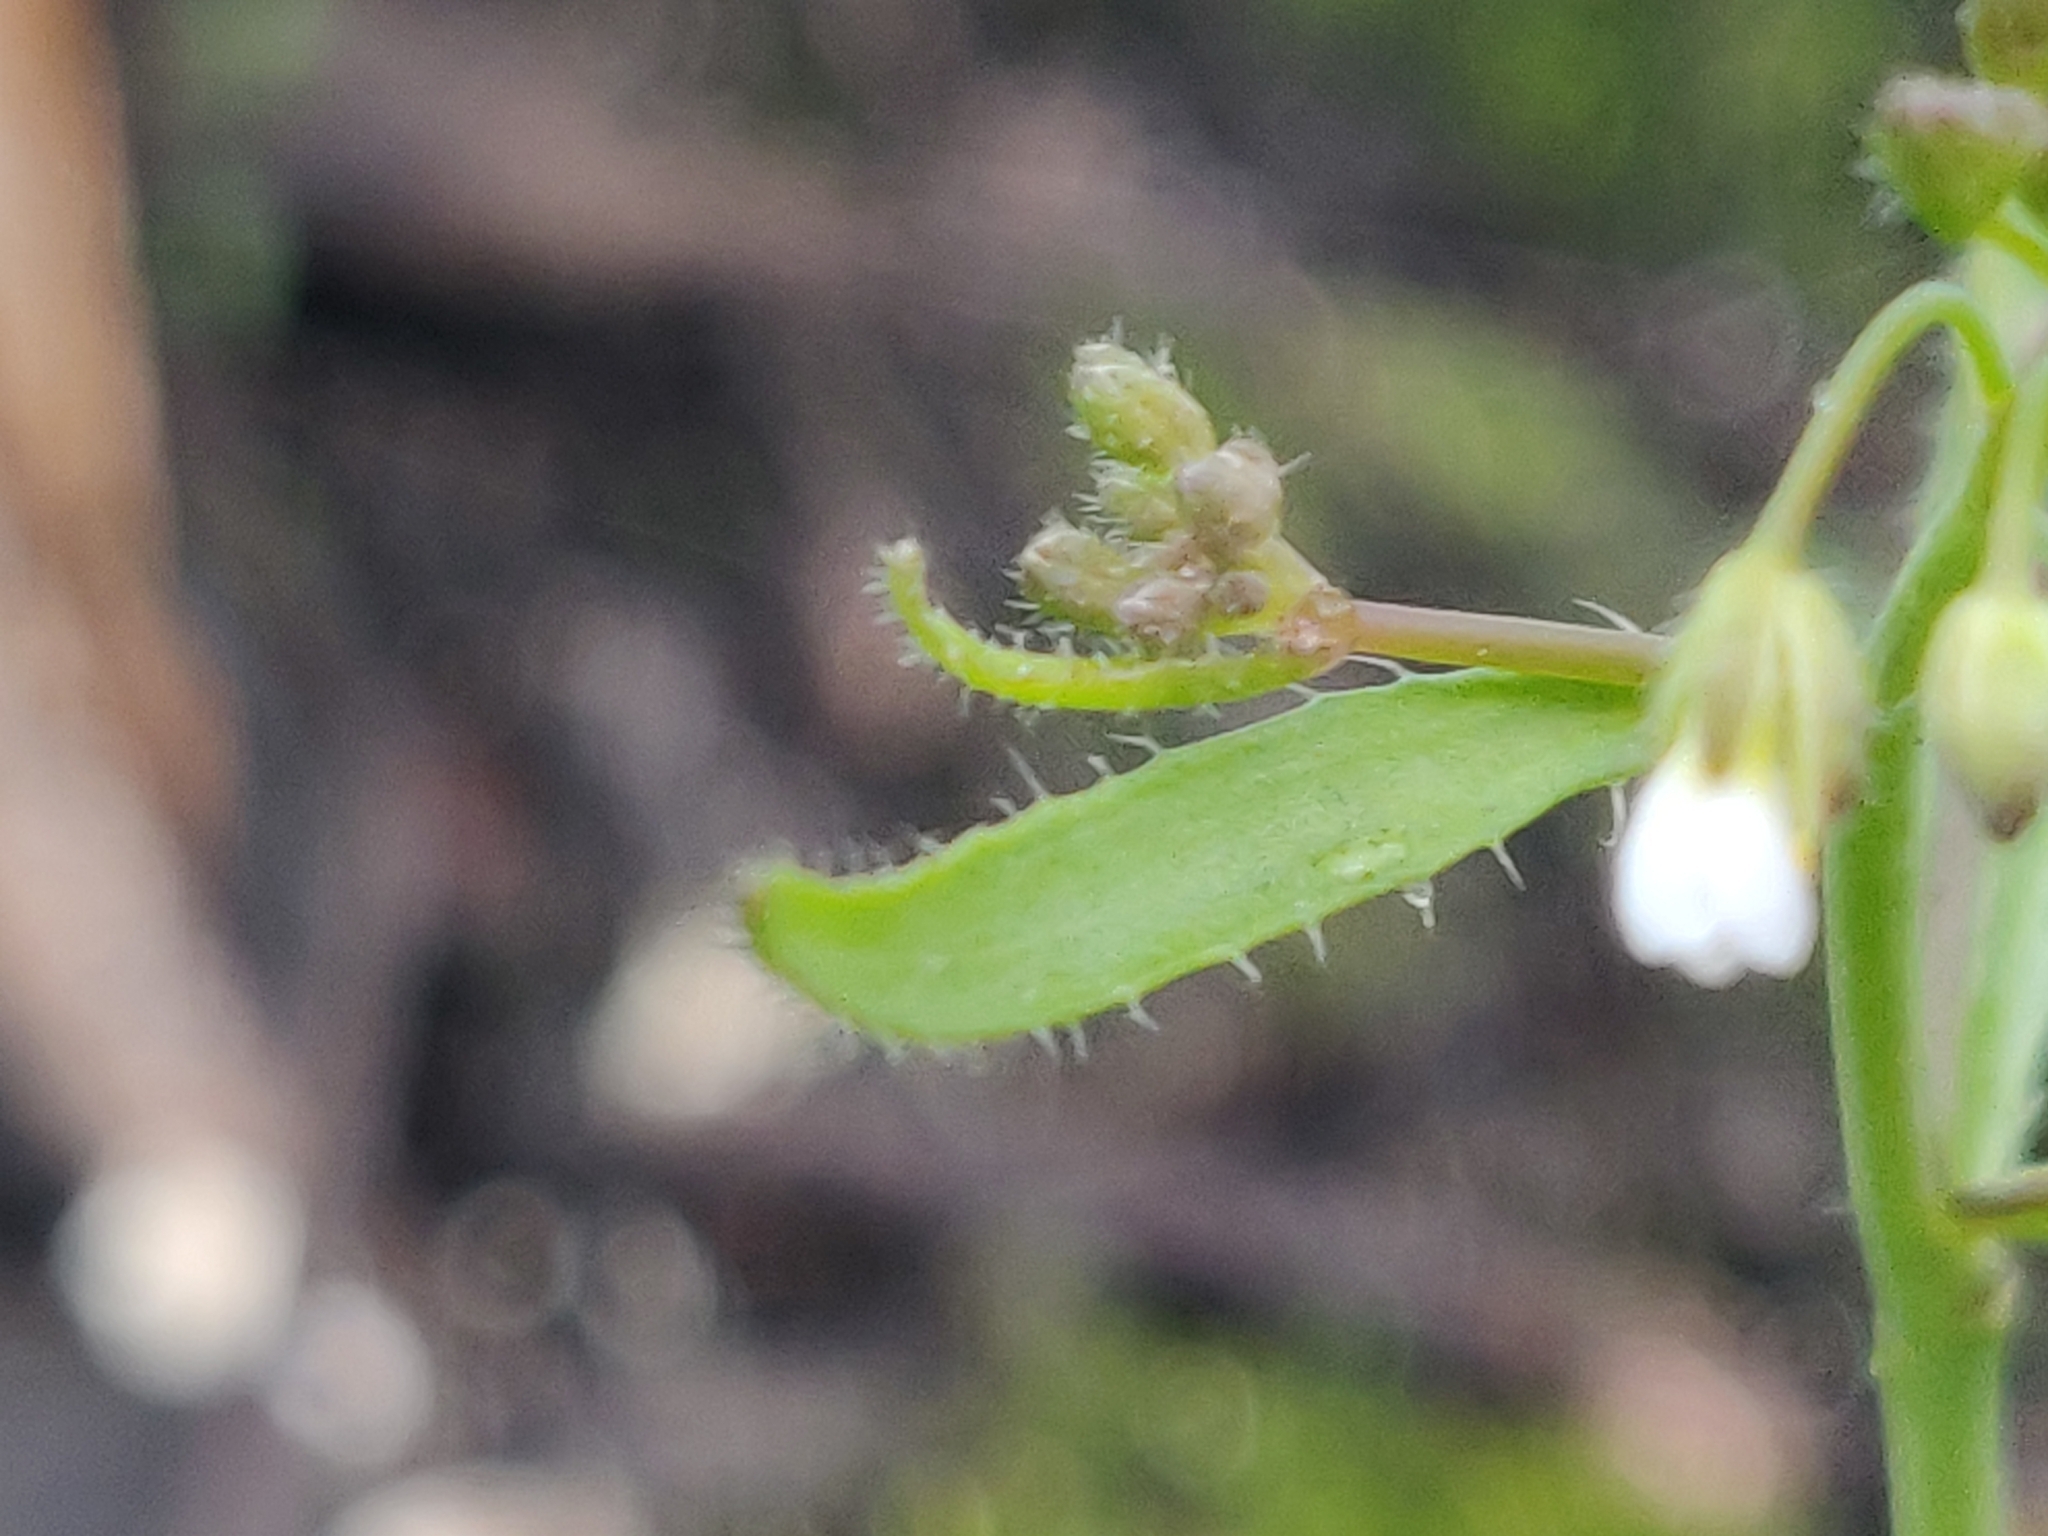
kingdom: Plantae
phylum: Tracheophyta
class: Magnoliopsida
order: Brassicales
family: Brassicaceae
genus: Arabidopsis
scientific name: Arabidopsis thaliana
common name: Thale cress
